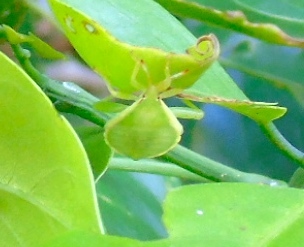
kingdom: Animalia
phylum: Arthropoda
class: Insecta
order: Hemiptera
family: Coreidae
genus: Piezogaster
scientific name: Piezogaster
